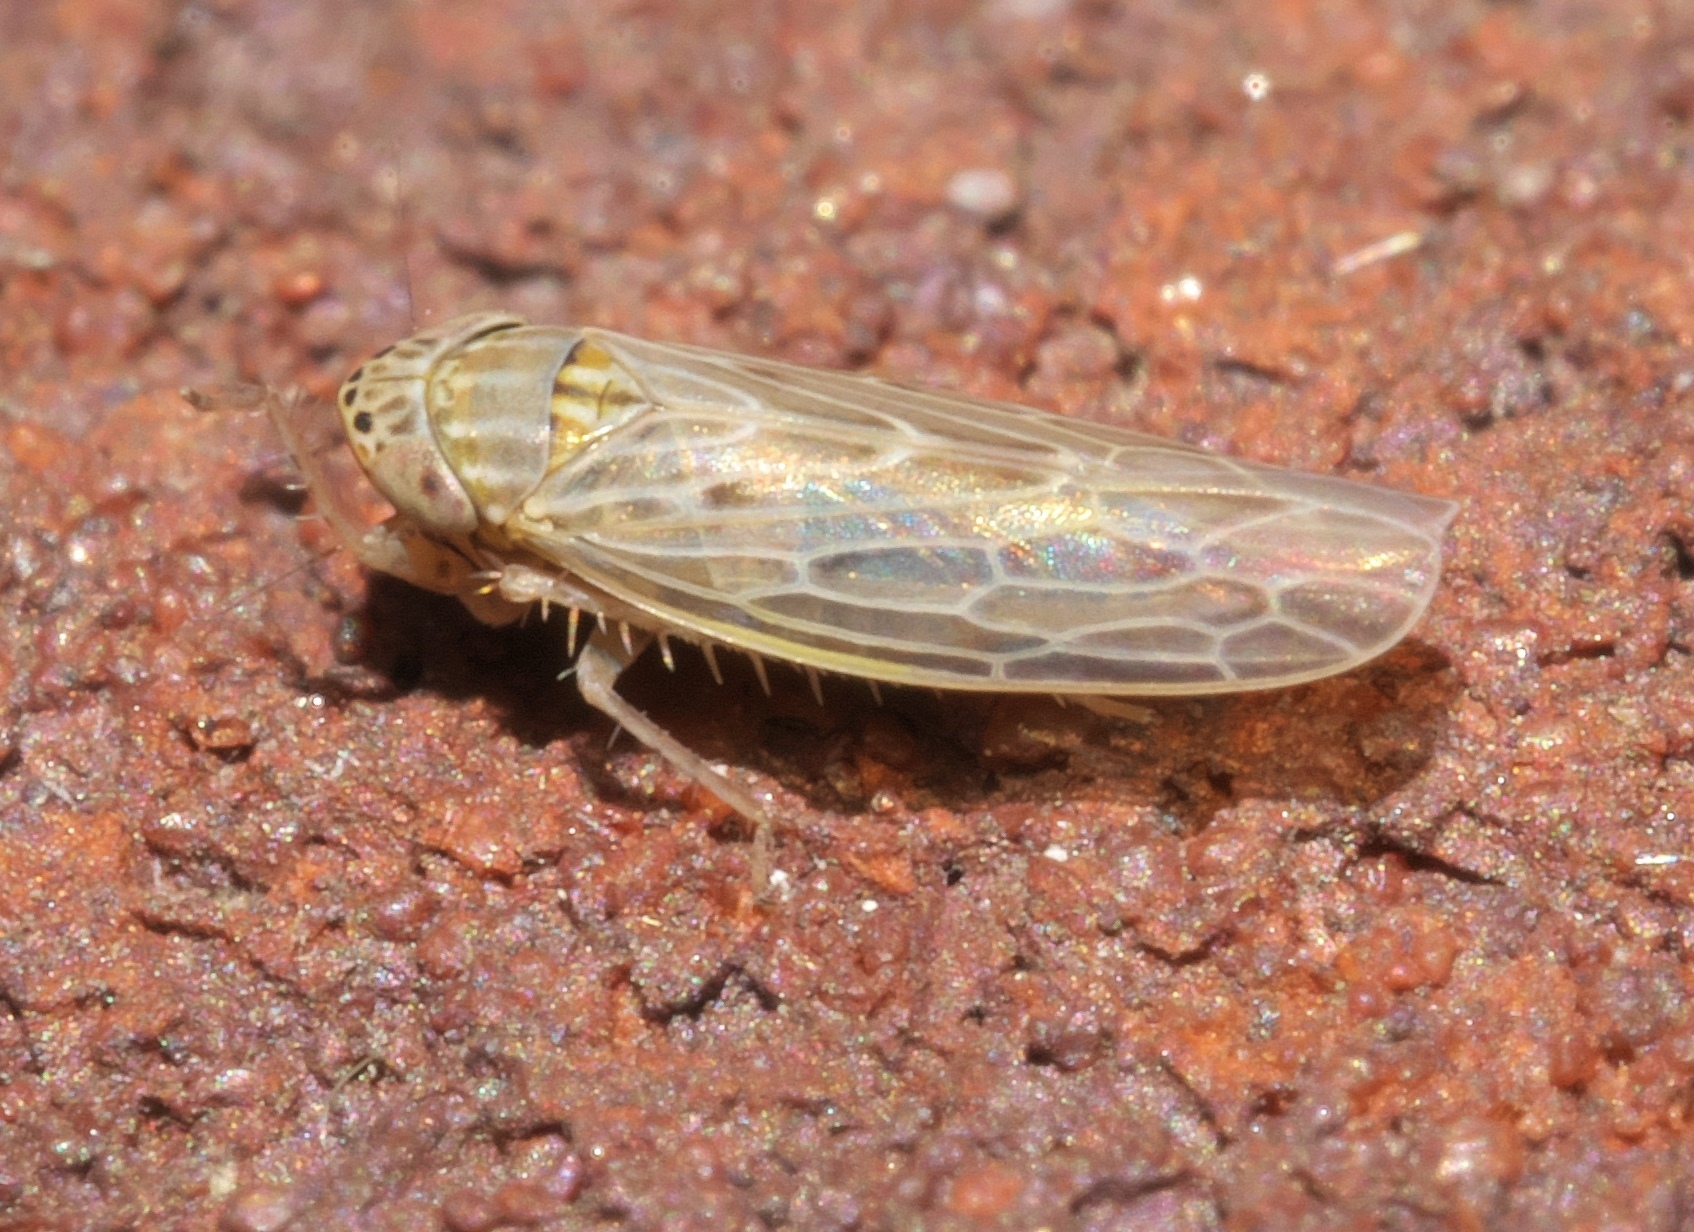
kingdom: Animalia
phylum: Arthropoda
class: Insecta
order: Hemiptera
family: Cicadellidae
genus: Graminella
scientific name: Graminella sonora
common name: Lesser lawn leafhopper
